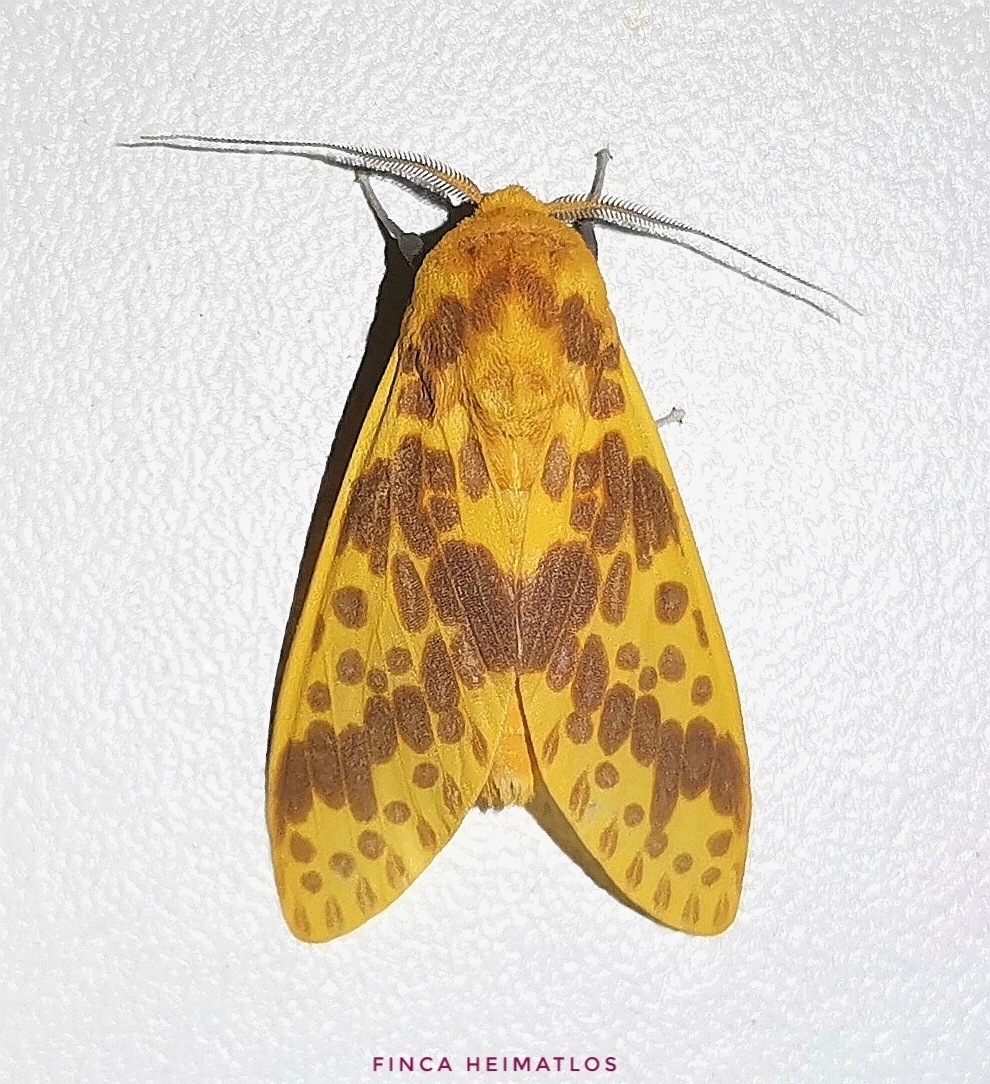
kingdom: Animalia
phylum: Arthropoda
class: Insecta
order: Lepidoptera
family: Erebidae
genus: Symphlebia
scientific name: Symphlebia neja
